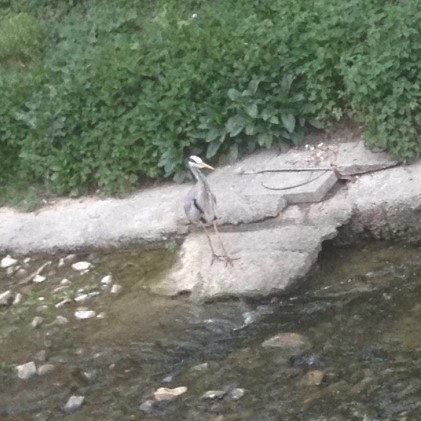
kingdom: Animalia
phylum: Chordata
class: Aves
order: Pelecaniformes
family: Ardeidae
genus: Ardea
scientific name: Ardea cinerea
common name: Grey heron
